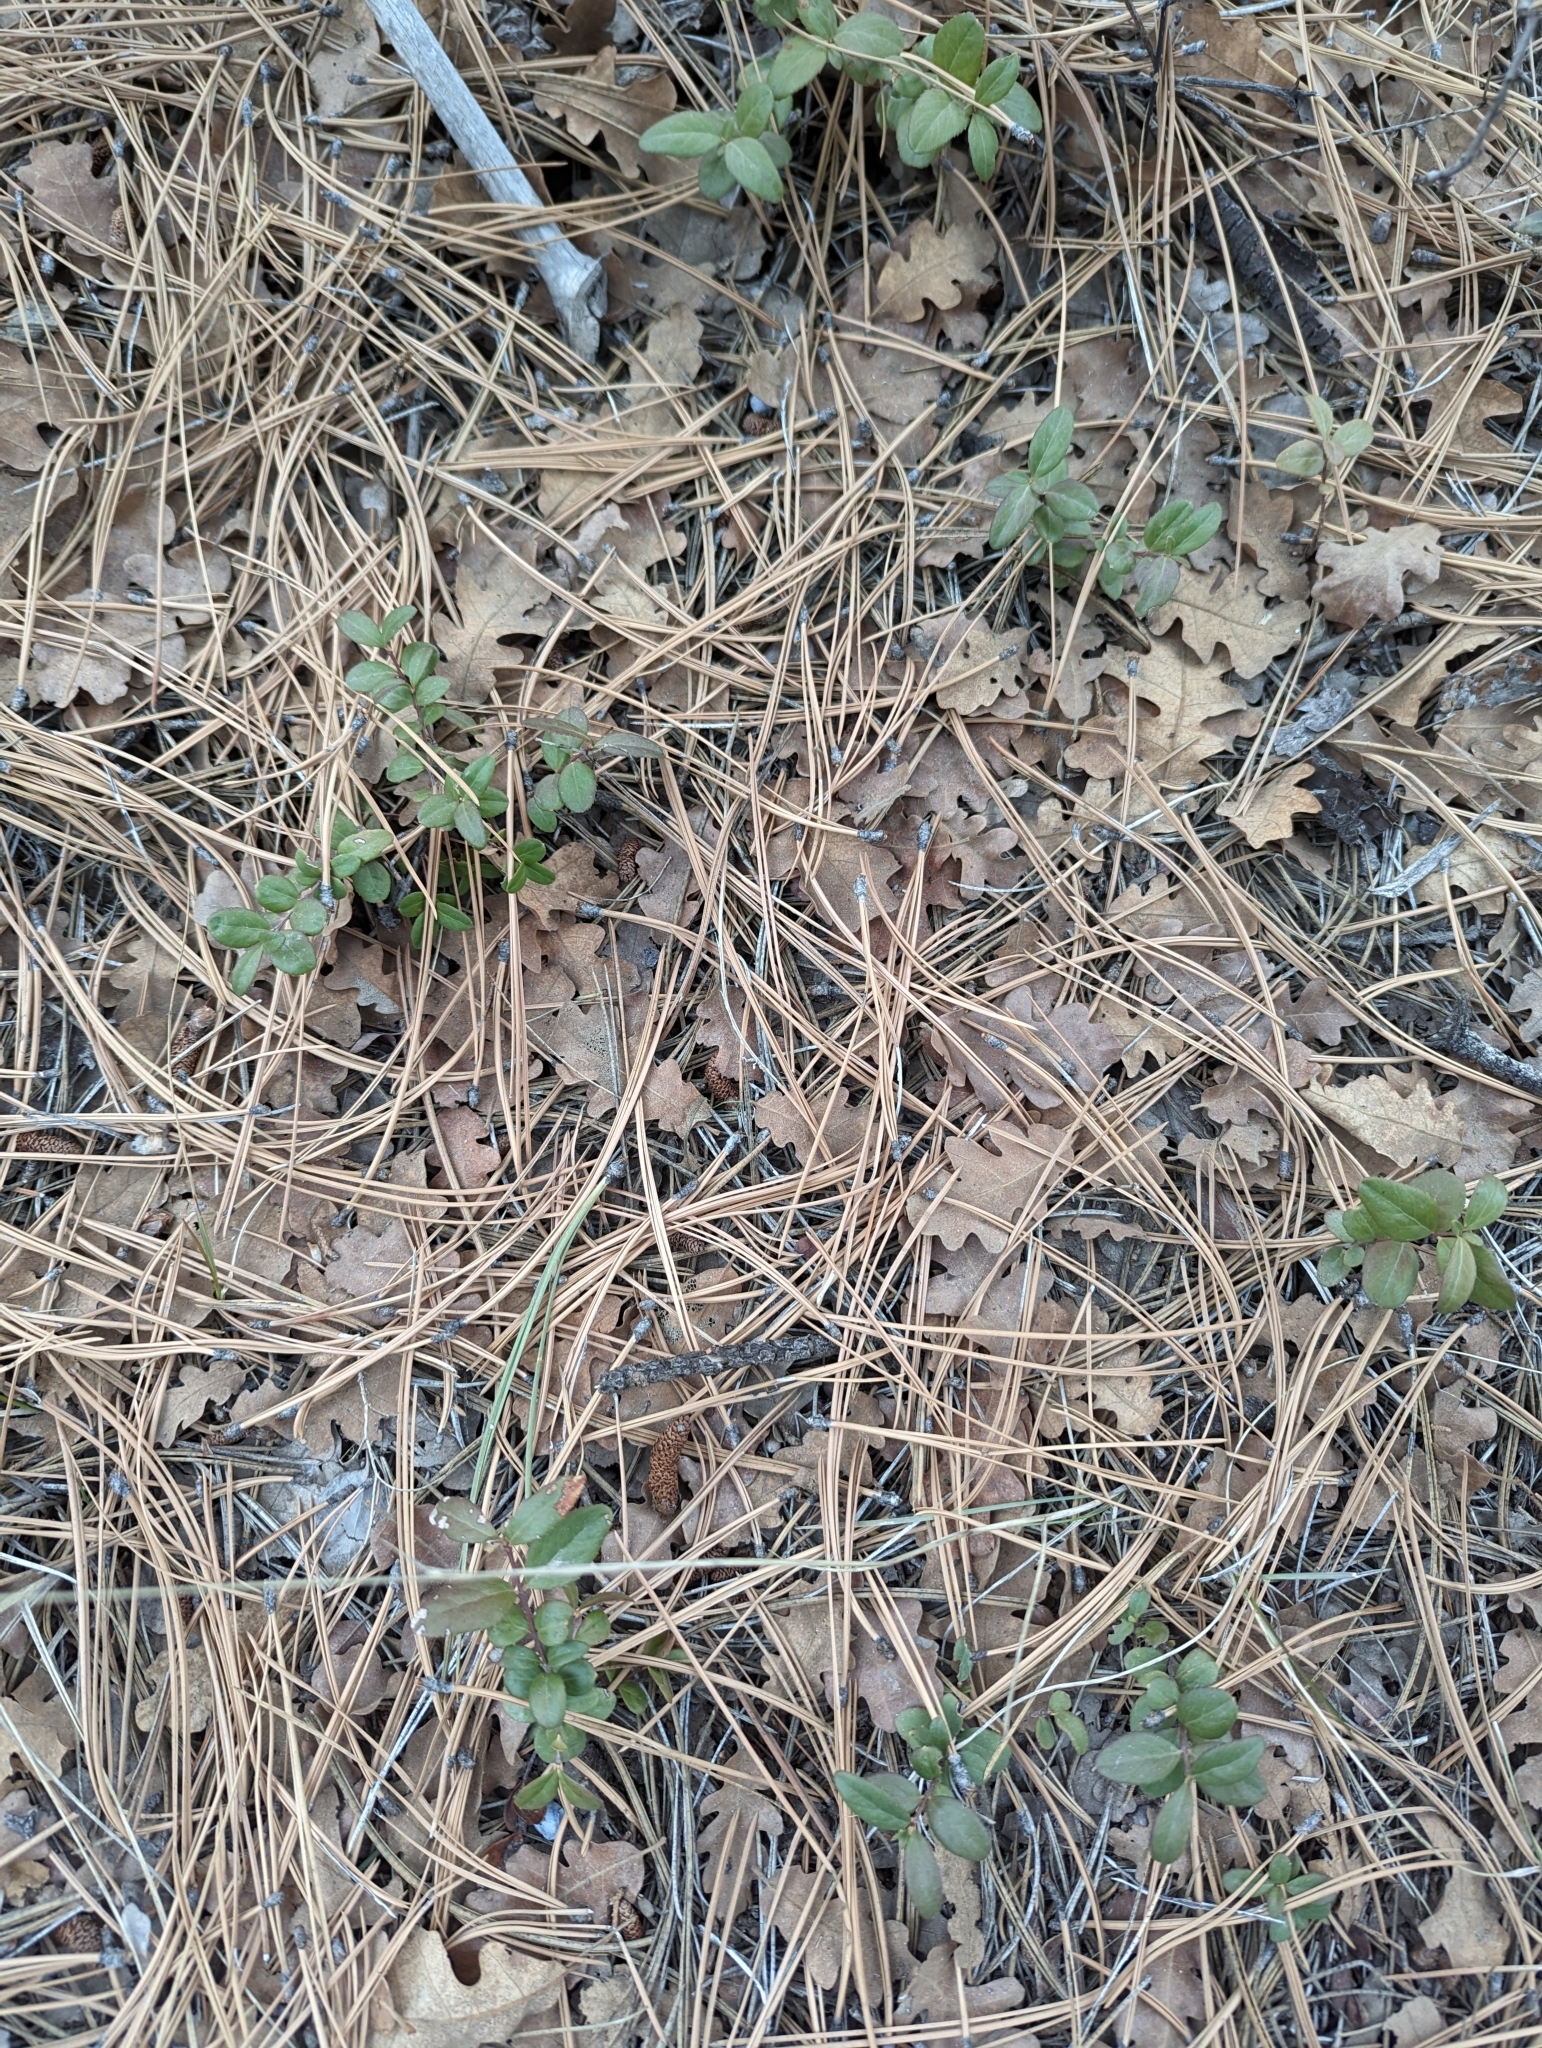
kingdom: Plantae
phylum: Tracheophyta
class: Magnoliopsida
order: Celastrales
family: Celastraceae
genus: Paxistima
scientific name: Paxistima myrsinites
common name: Mountain-lover
